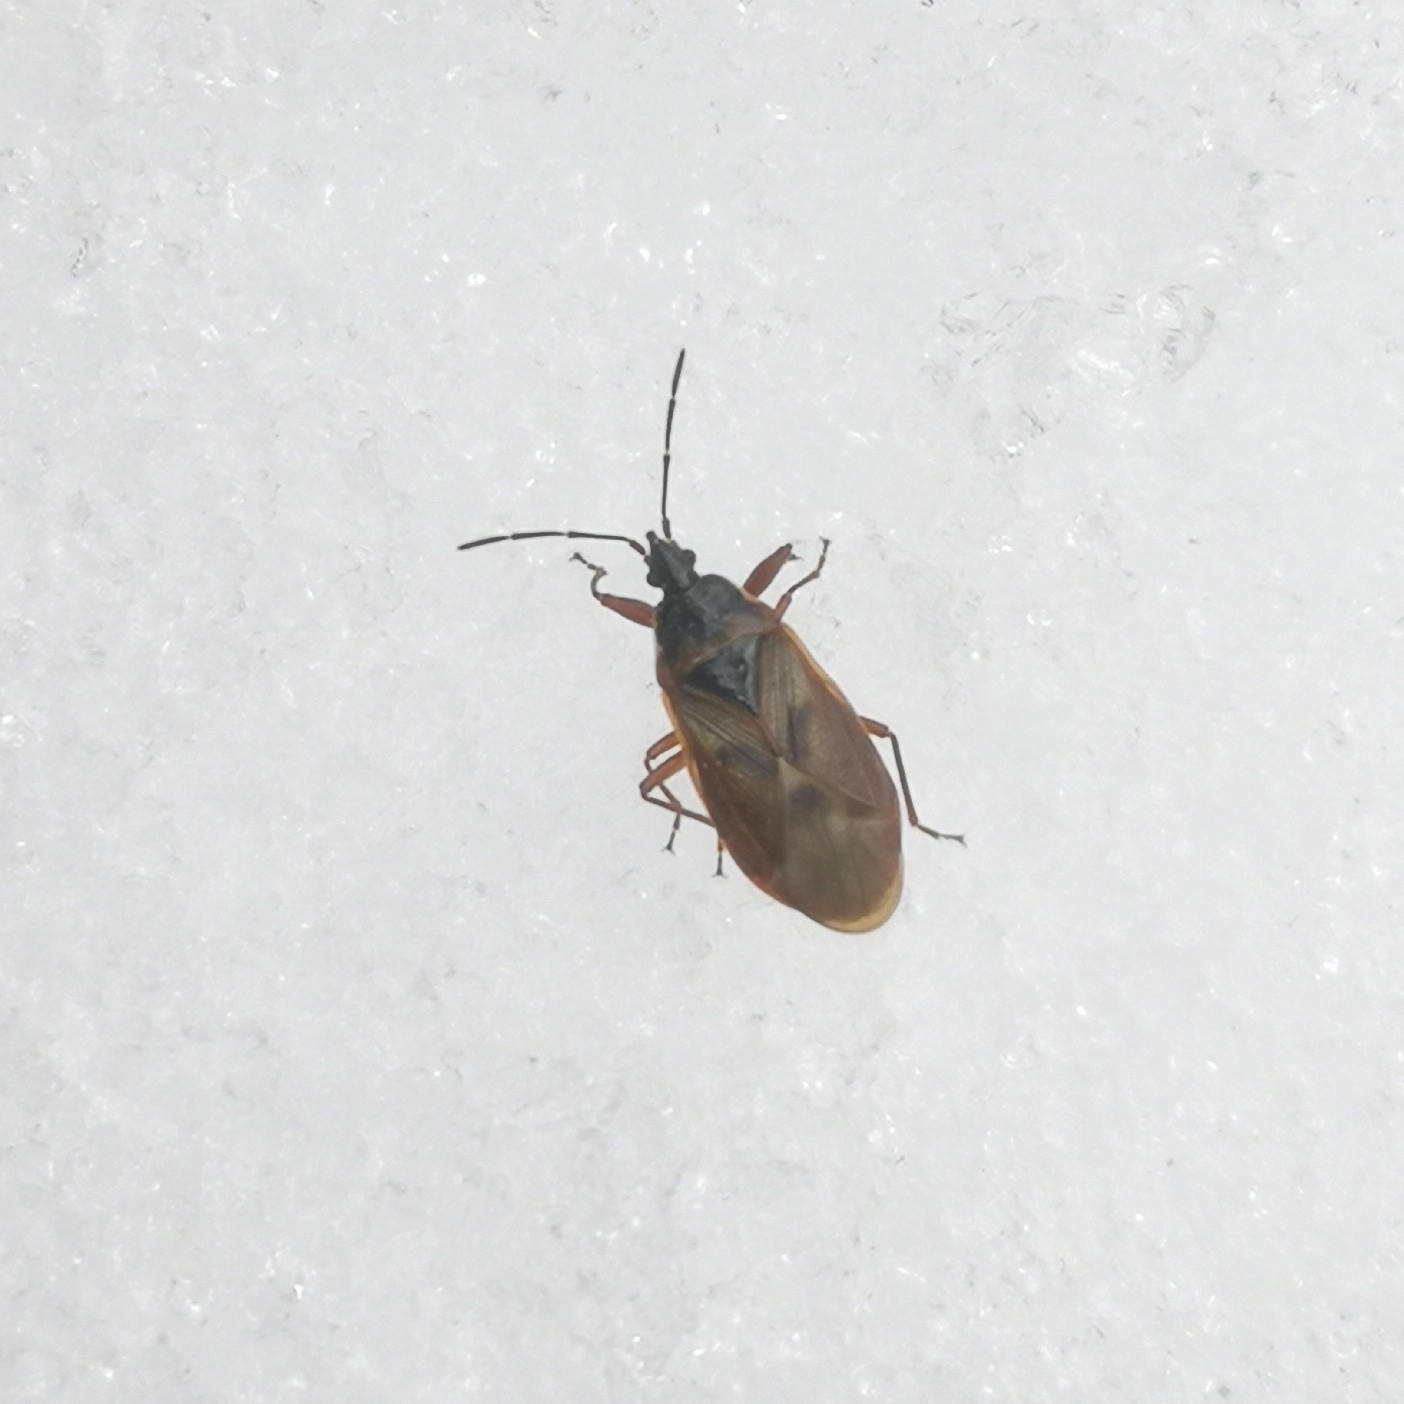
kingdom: Animalia
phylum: Arthropoda
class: Insecta
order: Hemiptera
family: Rhyparochromidae
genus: Gastrodes
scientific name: Gastrodes abietum
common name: Spruce cone bug
